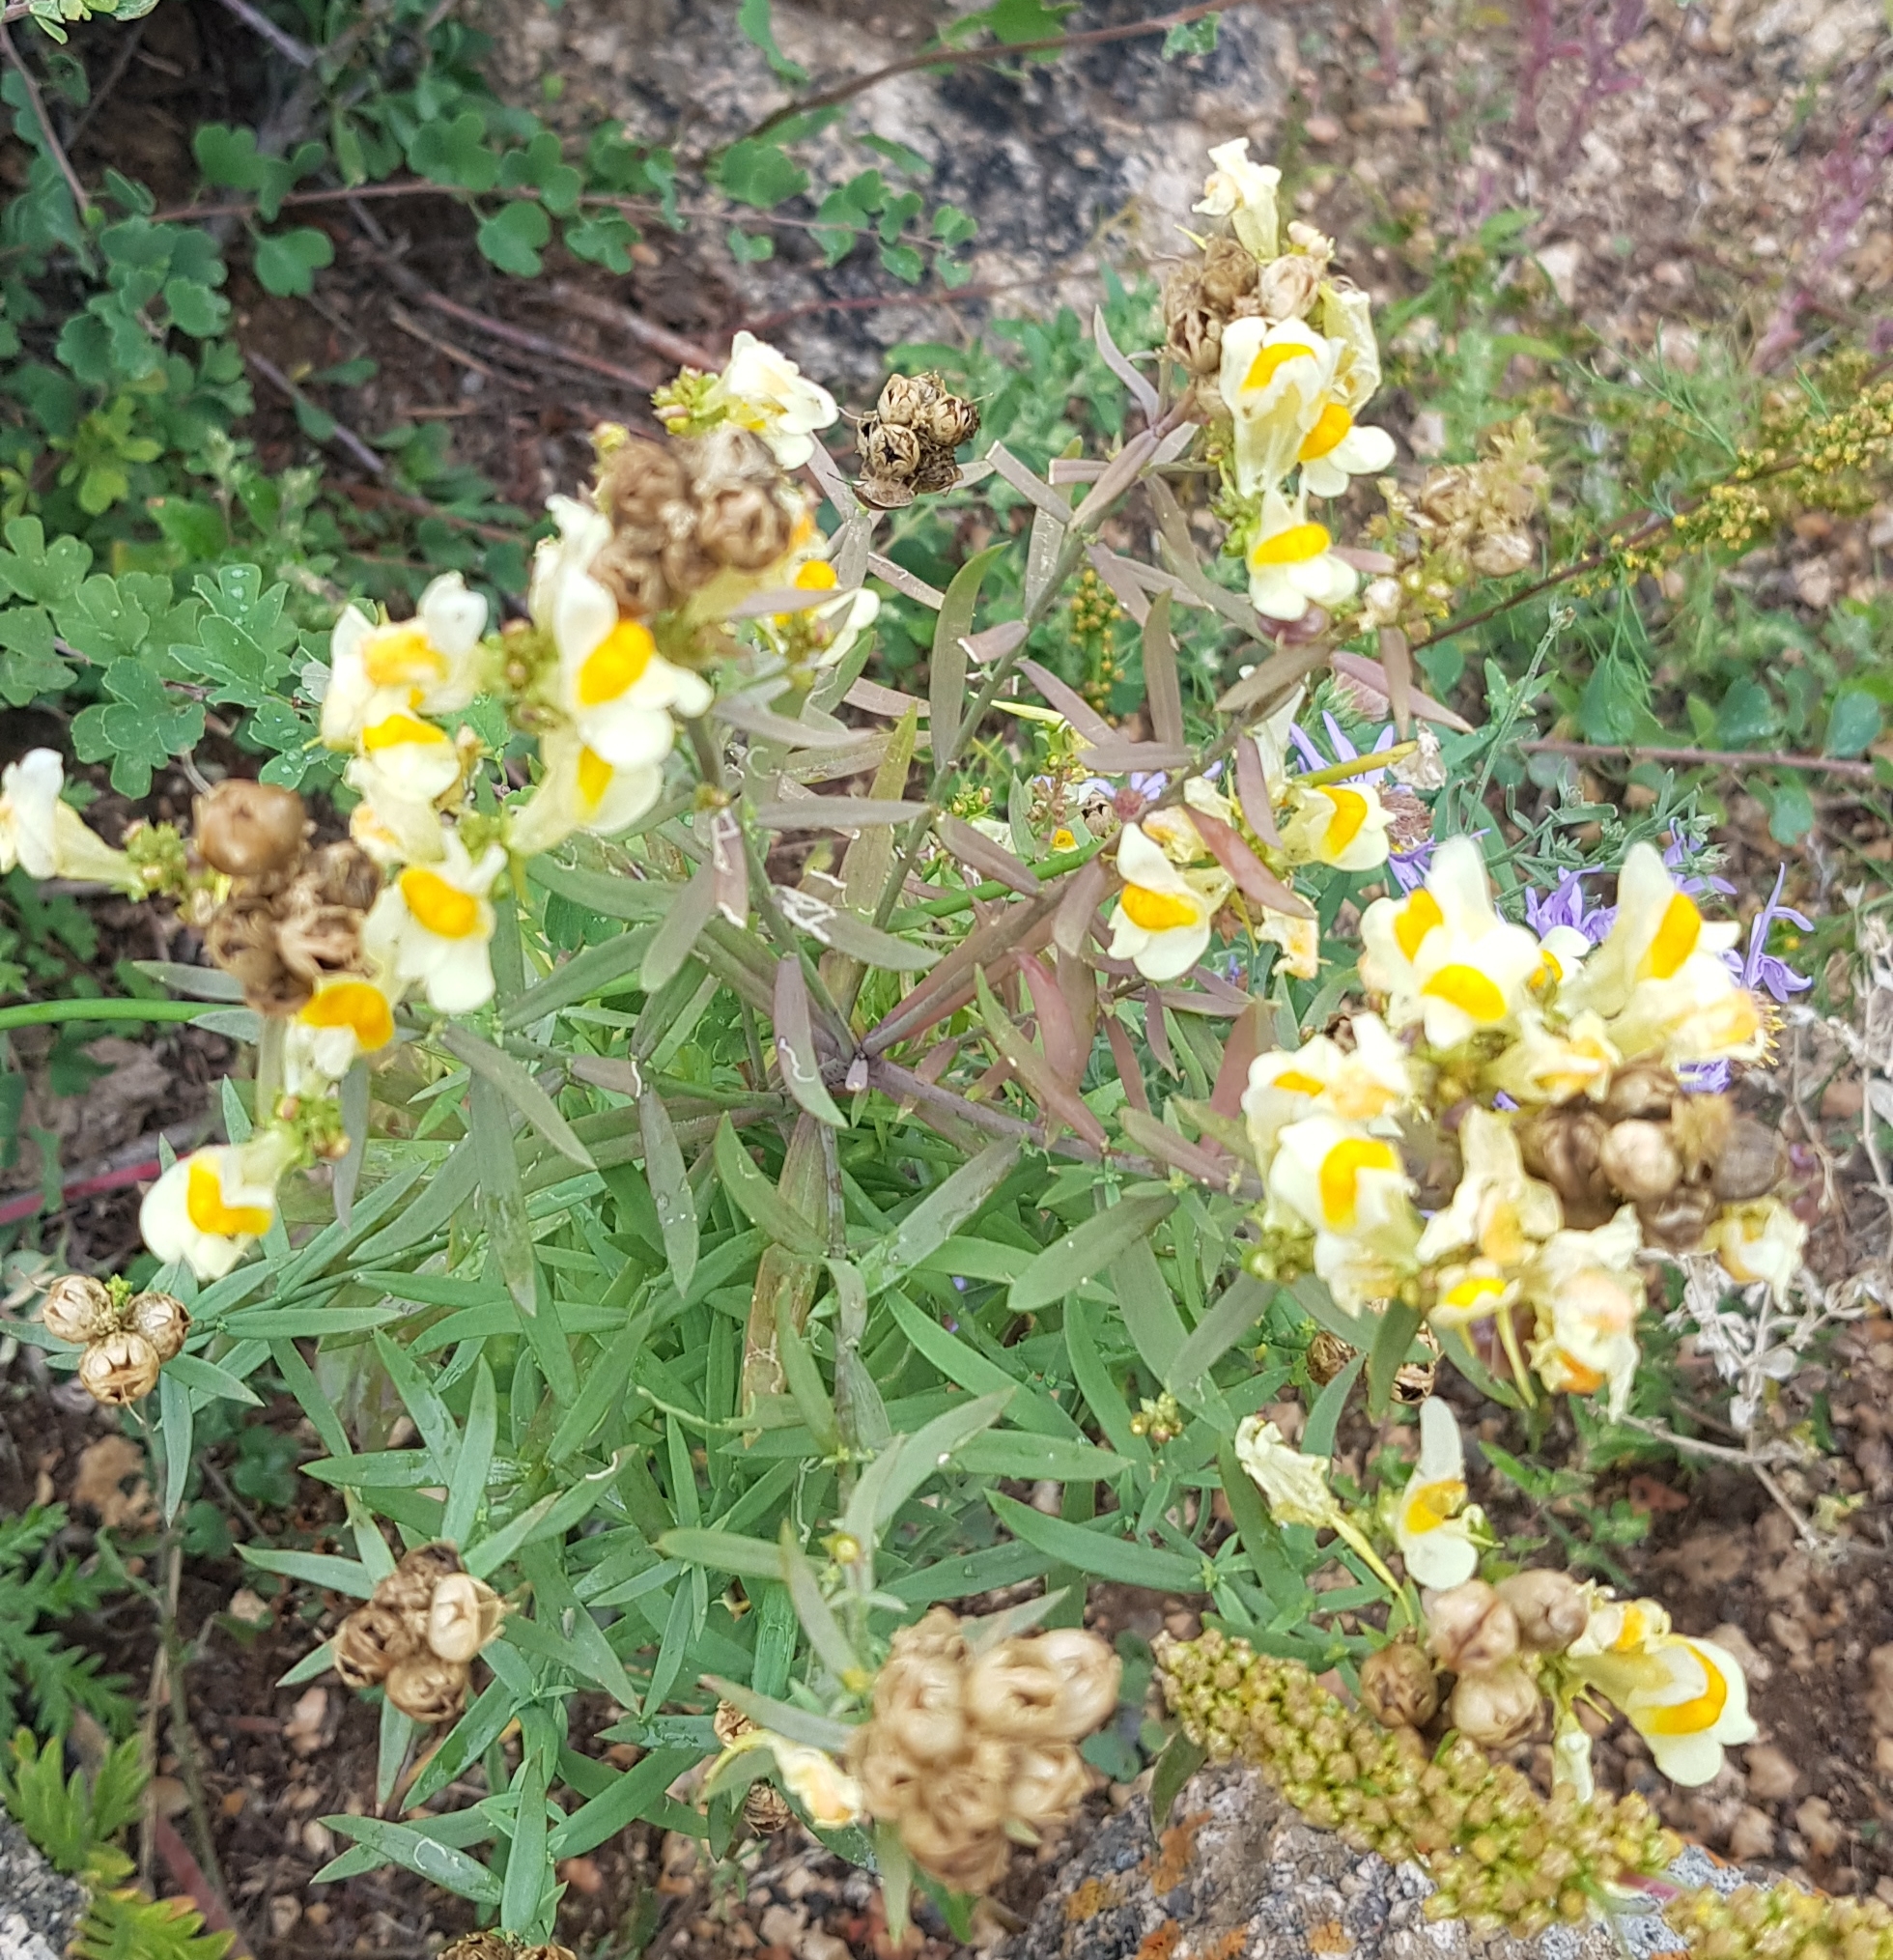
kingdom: Plantae
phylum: Tracheophyta
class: Magnoliopsida
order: Lamiales
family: Plantaginaceae
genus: Linaria
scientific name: Linaria buriatica
